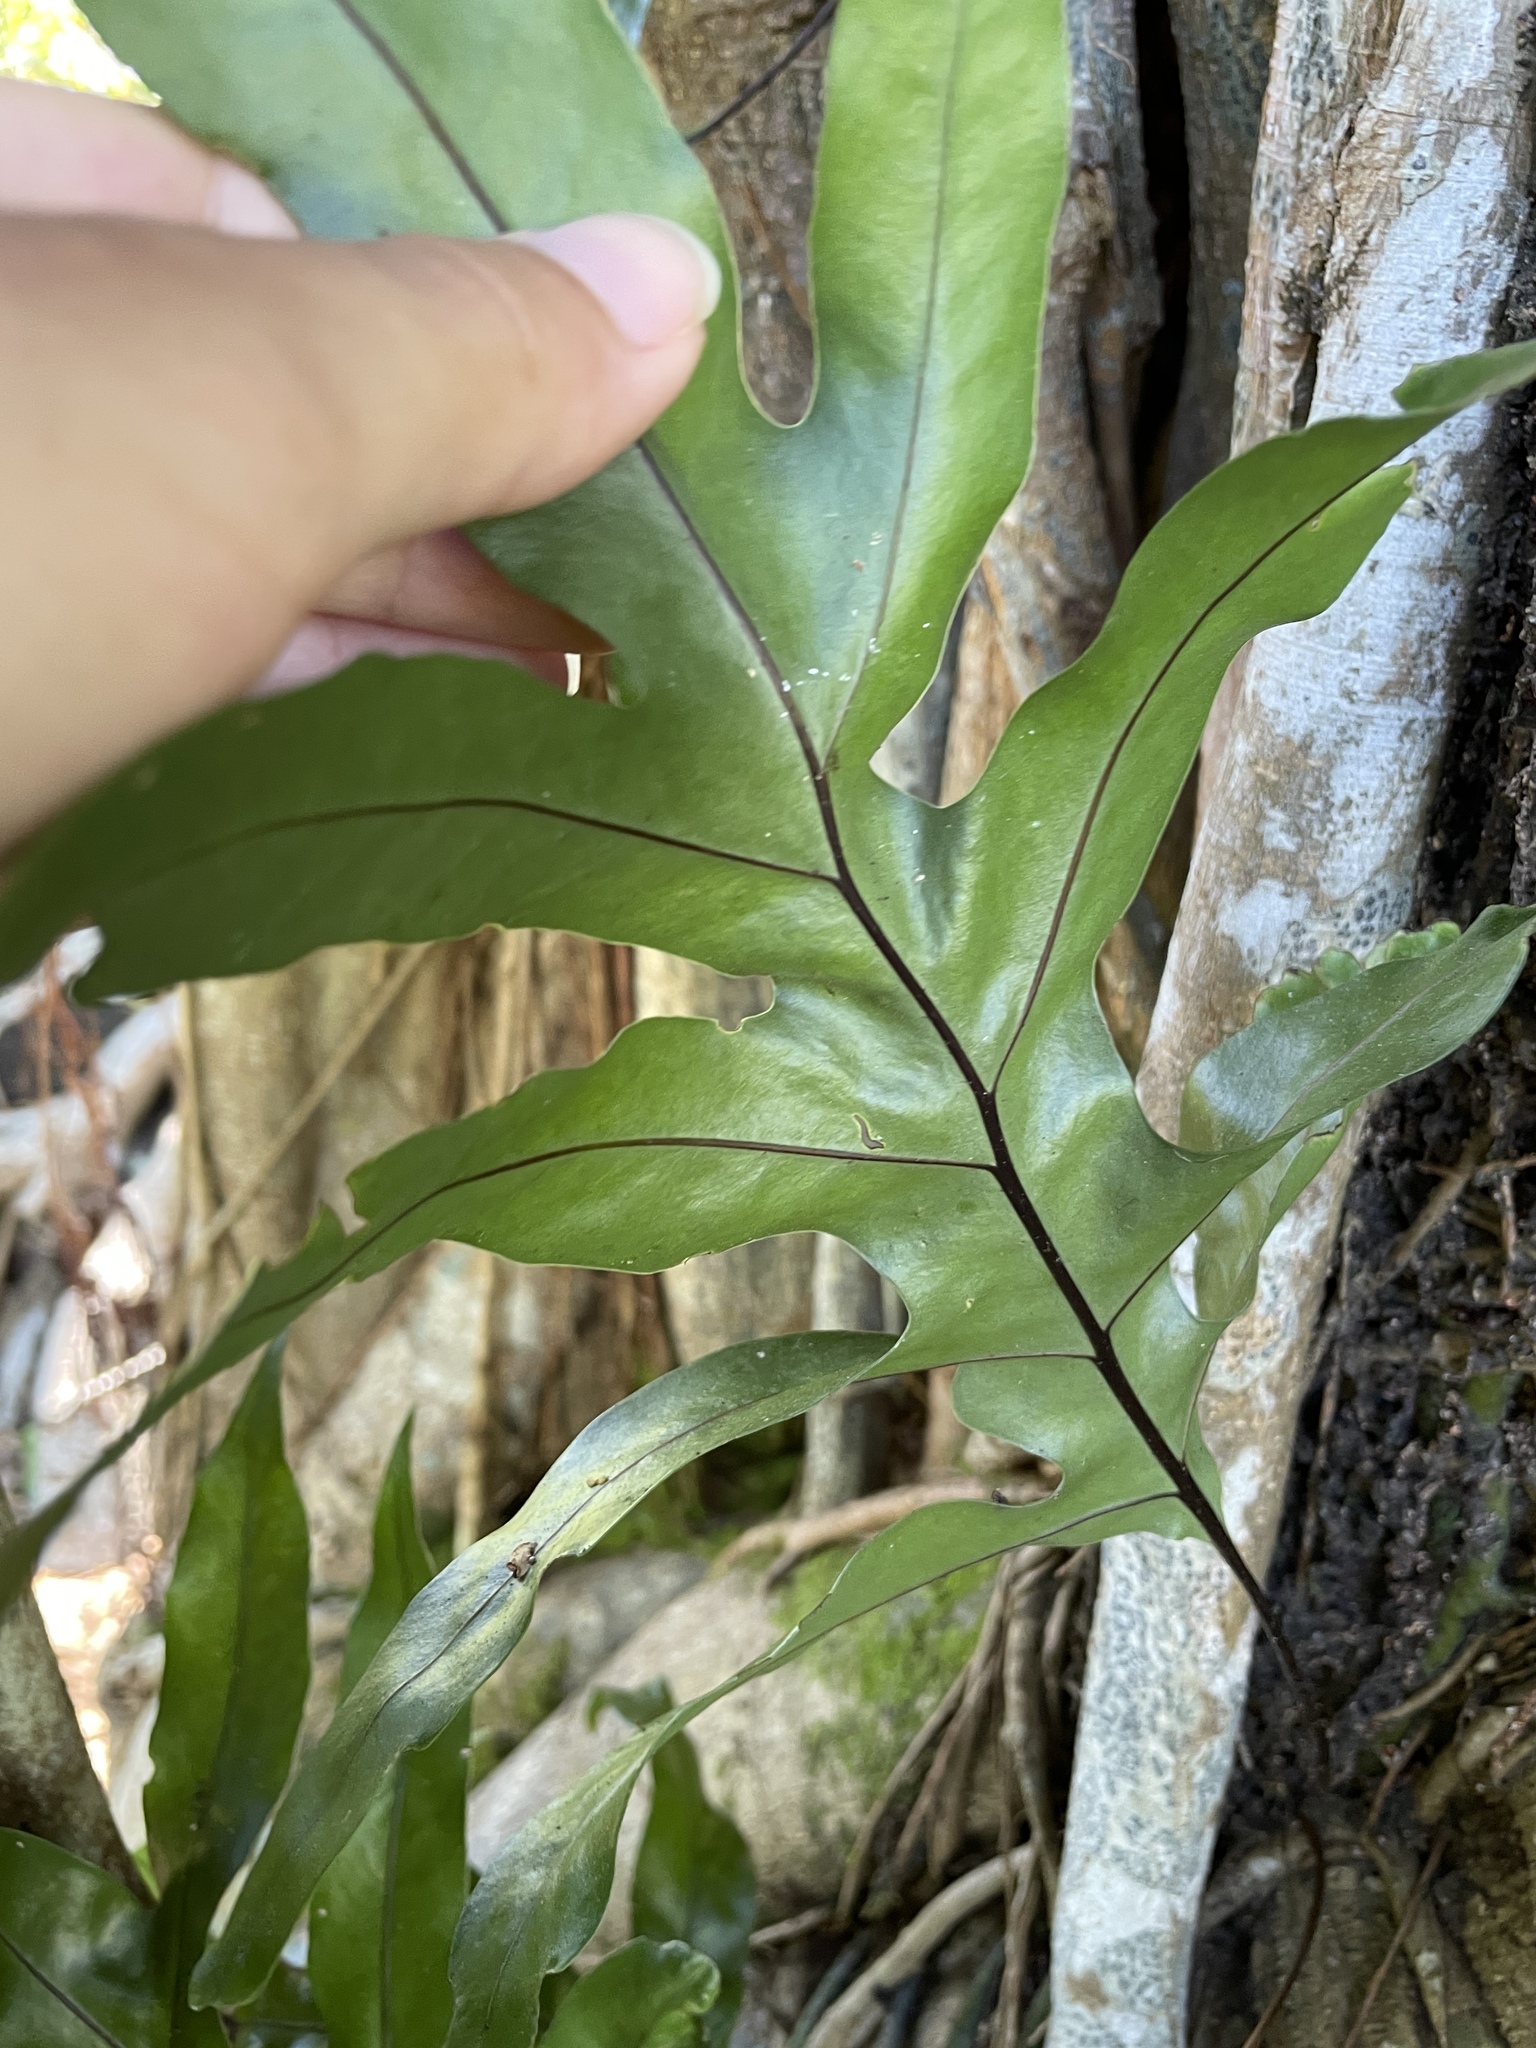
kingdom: Plantae
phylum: Tracheophyta
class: Polypodiopsida
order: Polypodiales
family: Polypodiaceae
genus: Microsorum
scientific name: Microsorum grossum
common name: Musk fern
